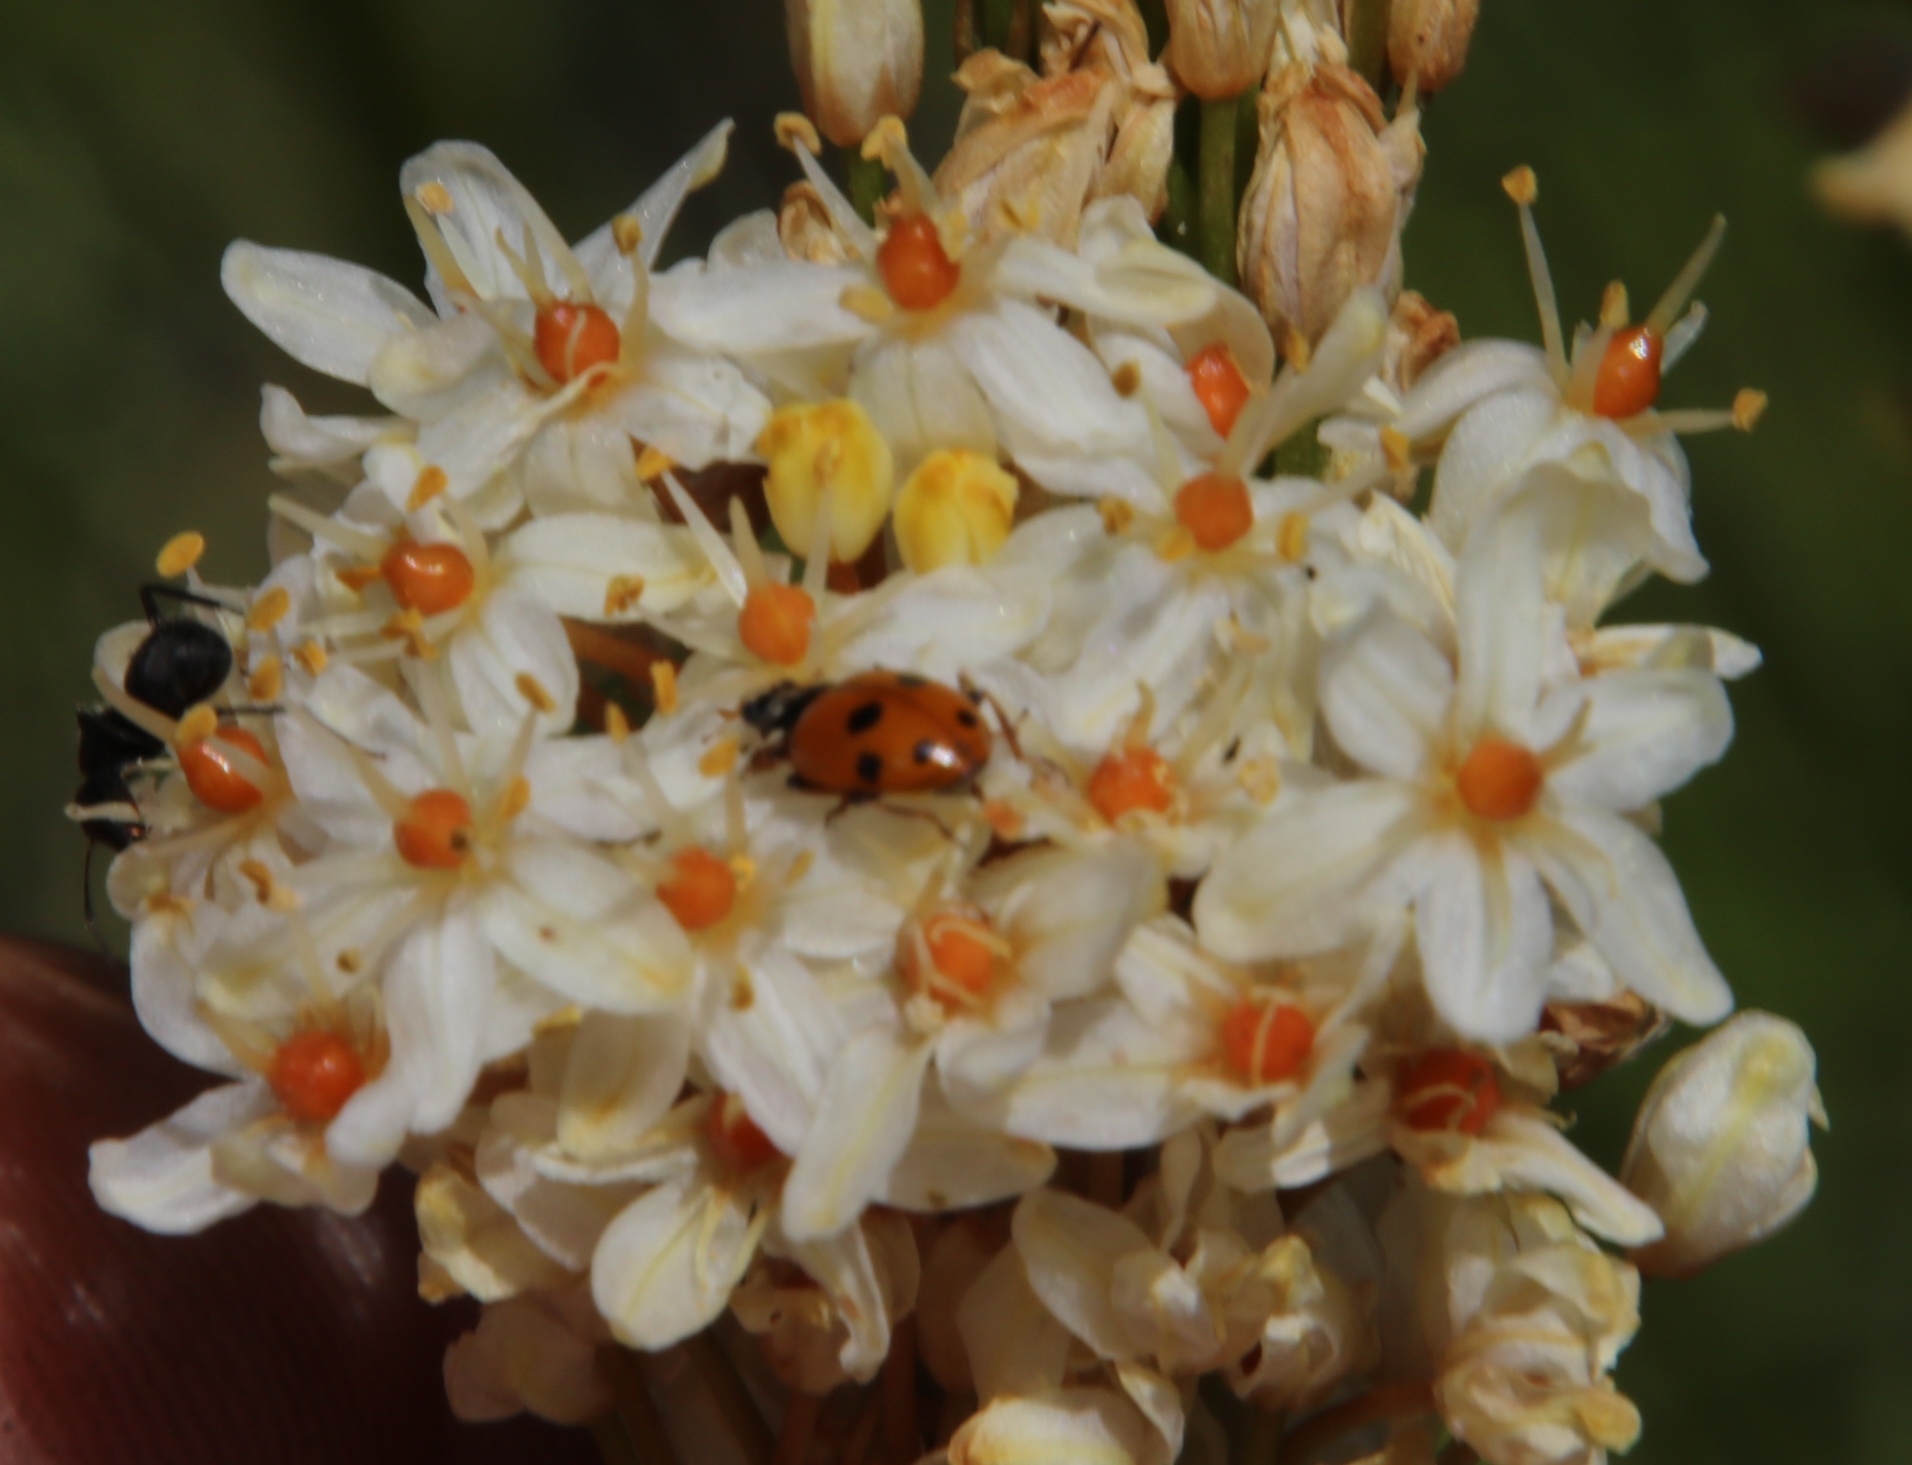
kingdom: Animalia
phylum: Arthropoda
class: Insecta
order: Hymenoptera
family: Formicidae
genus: Camponotus
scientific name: Camponotus niveosetosus
